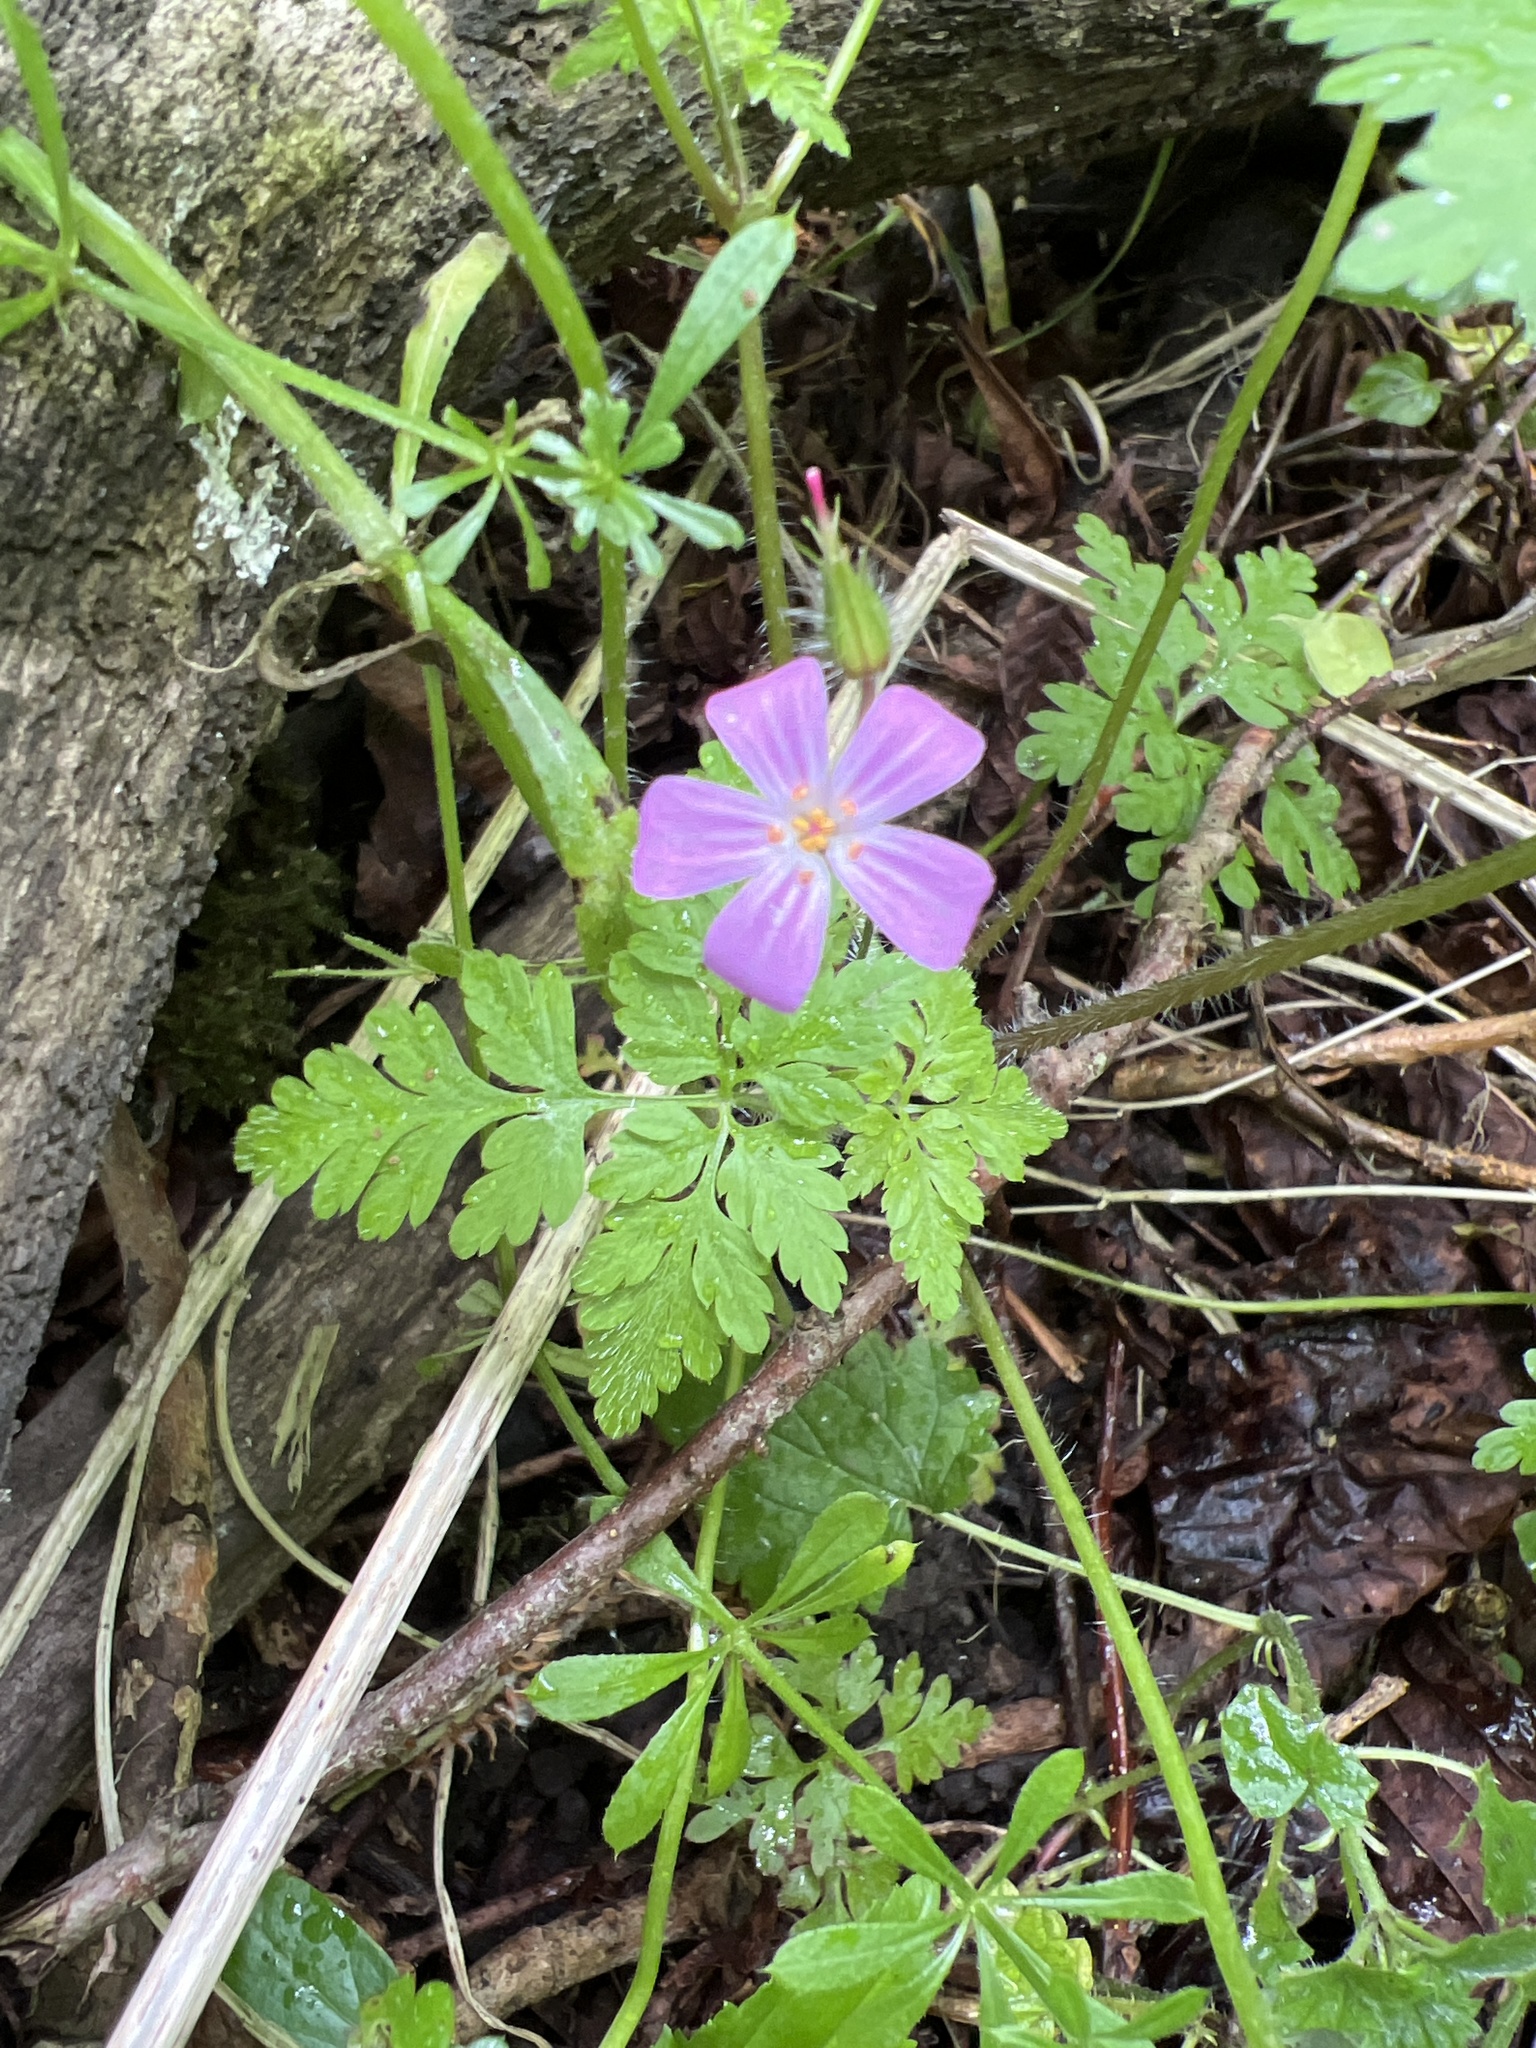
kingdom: Plantae
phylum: Tracheophyta
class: Magnoliopsida
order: Geraniales
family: Geraniaceae
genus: Geranium
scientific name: Geranium robertianum
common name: Herb-robert
